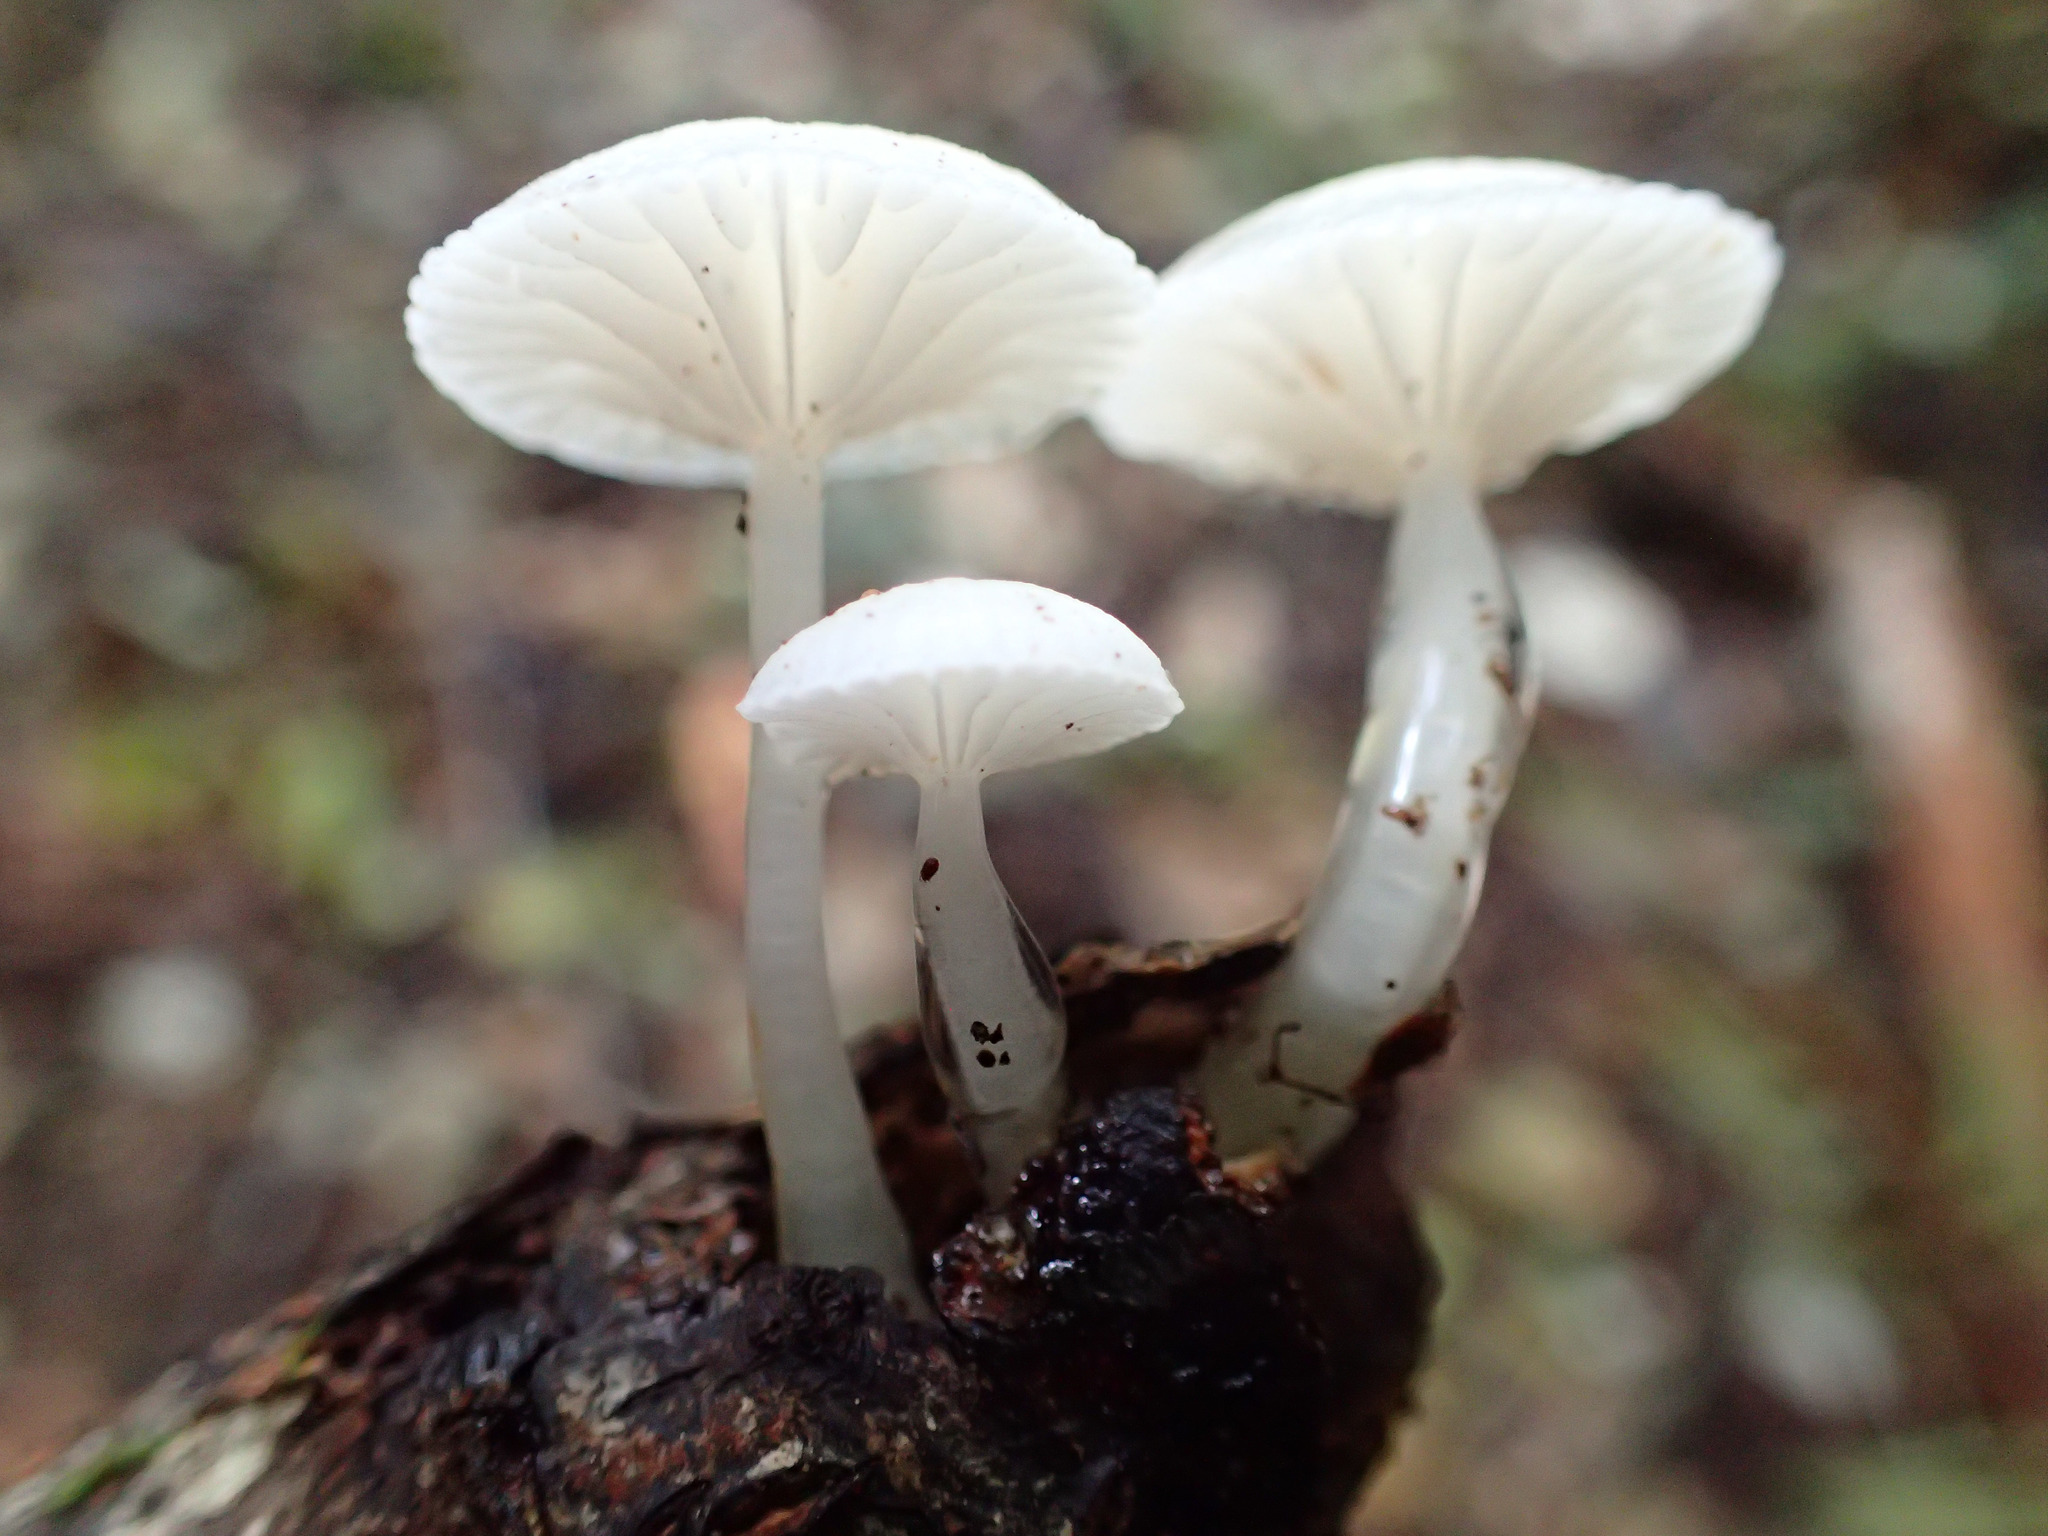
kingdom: Fungi
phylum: Basidiomycota
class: Agaricomycetes
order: Agaricales
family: Mycenaceae
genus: Roridomyces
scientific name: Roridomyces austrororidus
